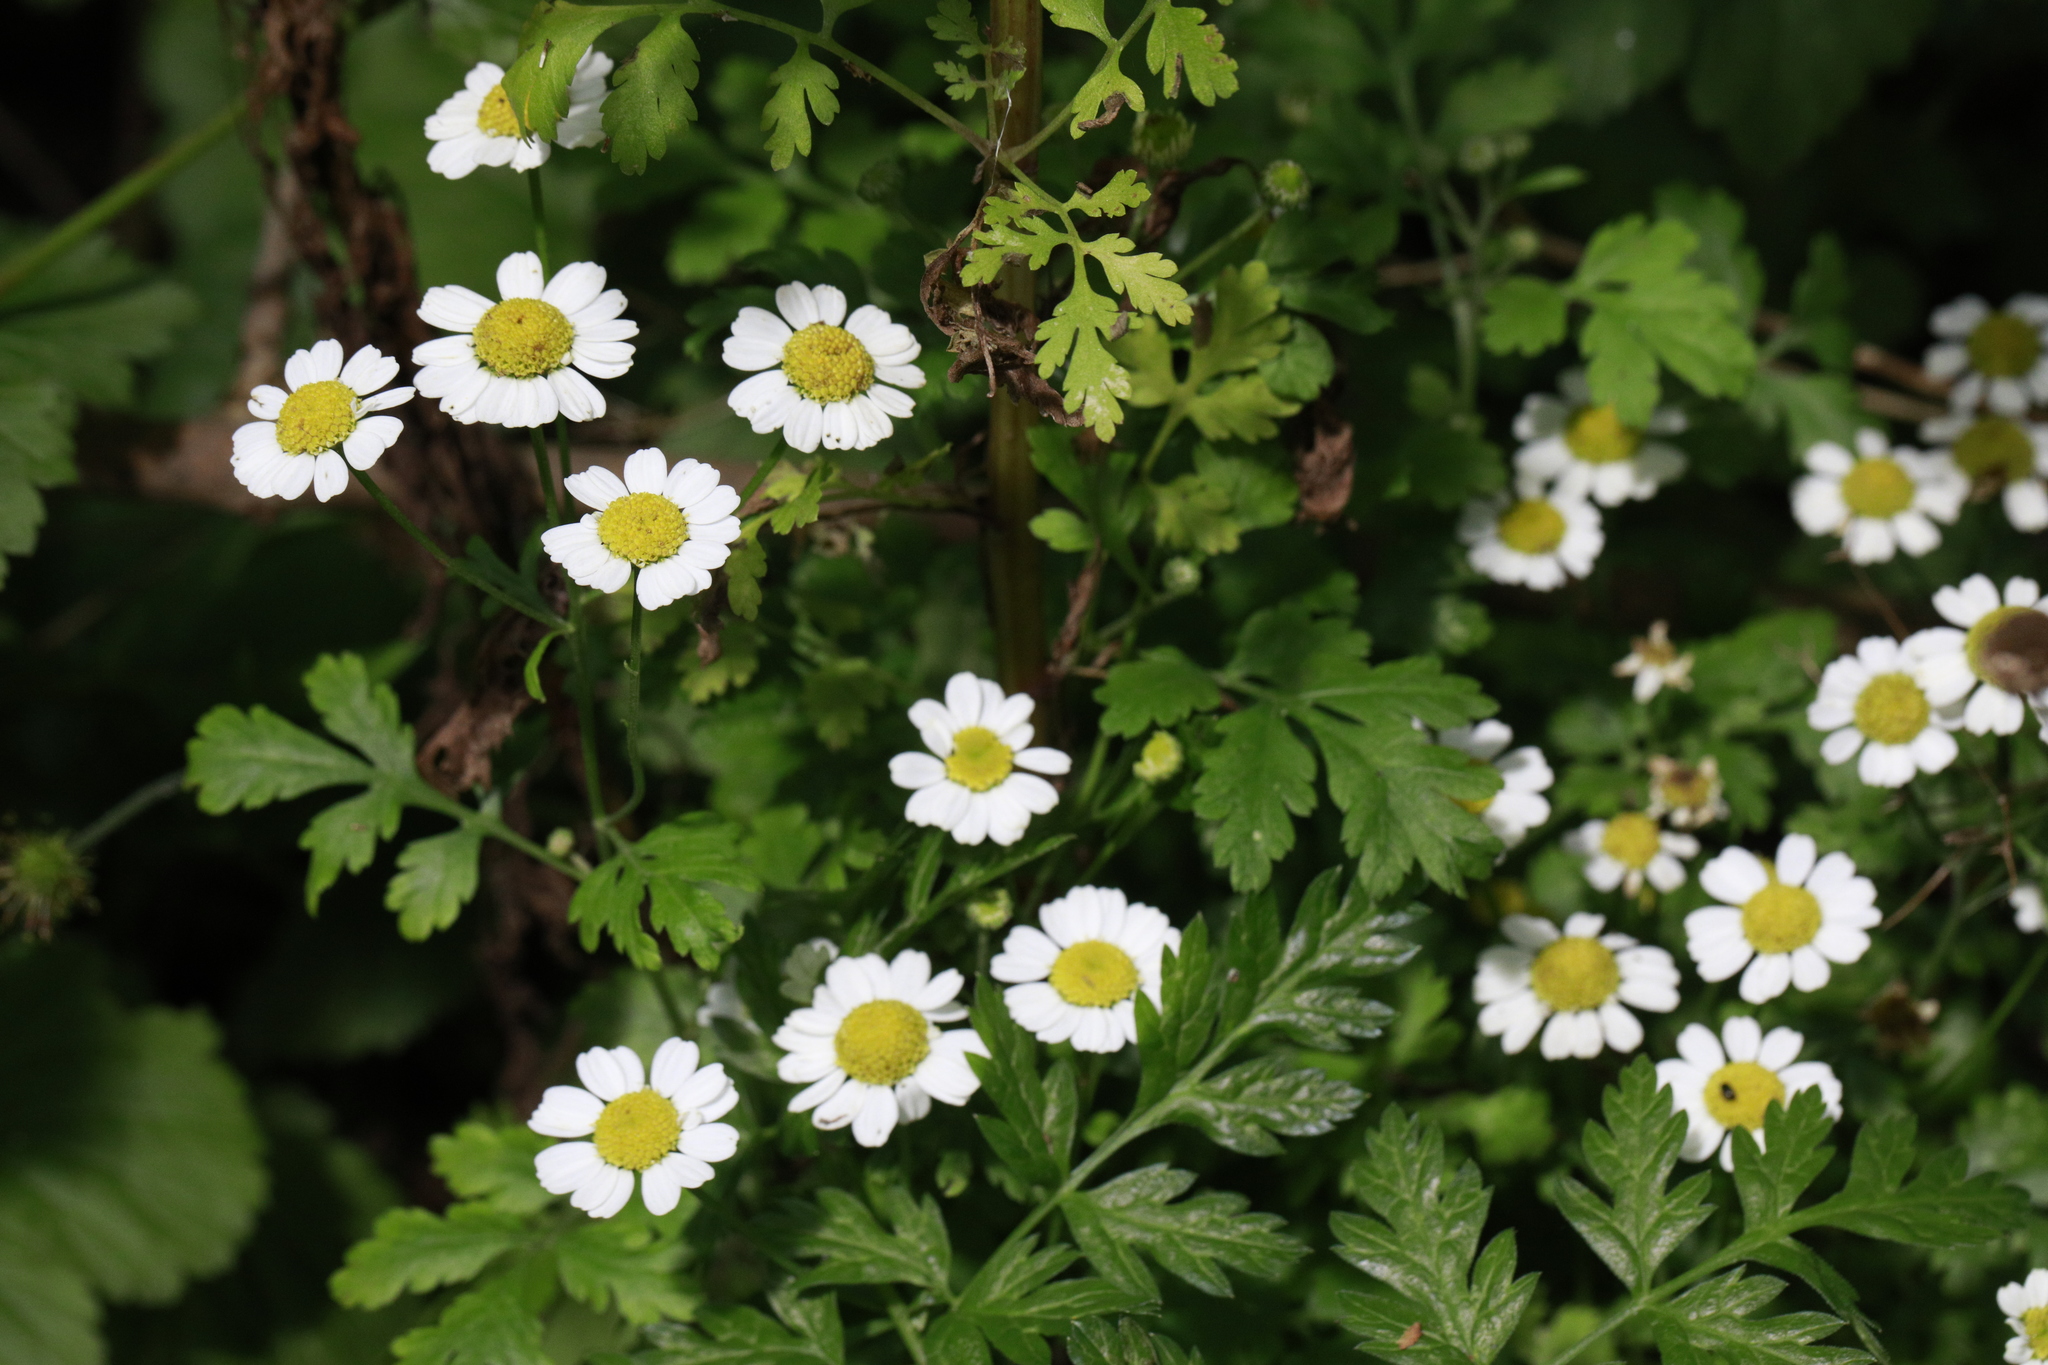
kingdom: Plantae
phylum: Tracheophyta
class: Magnoliopsida
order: Asterales
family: Asteraceae
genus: Tanacetum
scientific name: Tanacetum parthenium
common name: Feverfew
